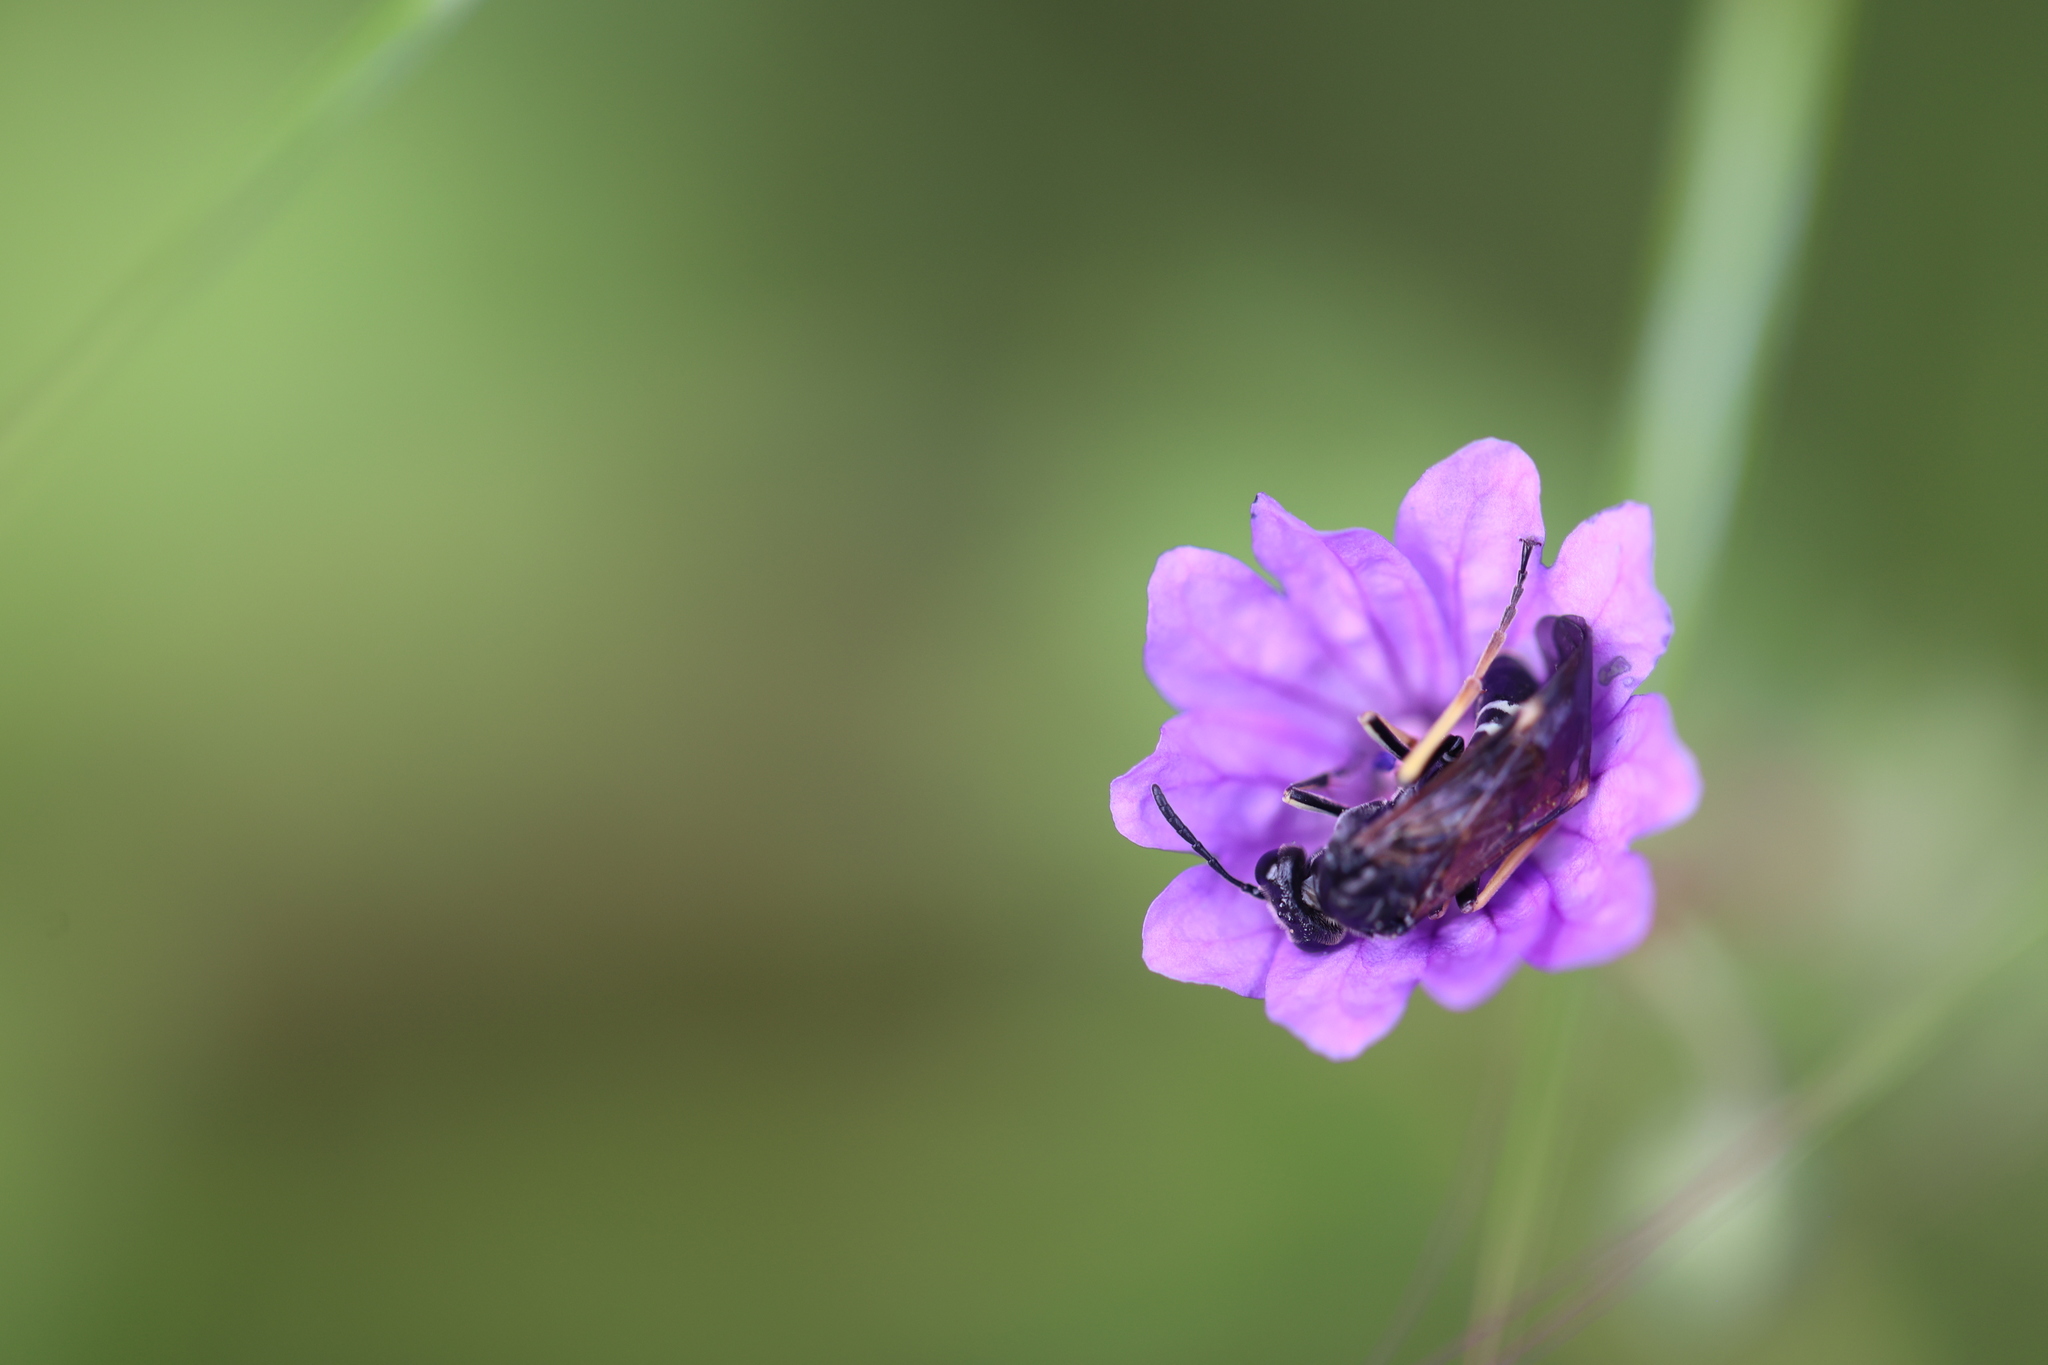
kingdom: Animalia
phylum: Arthropoda
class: Insecta
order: Hymenoptera
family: Tenthredinidae
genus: Tenthredo
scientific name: Tenthredo koehleri
